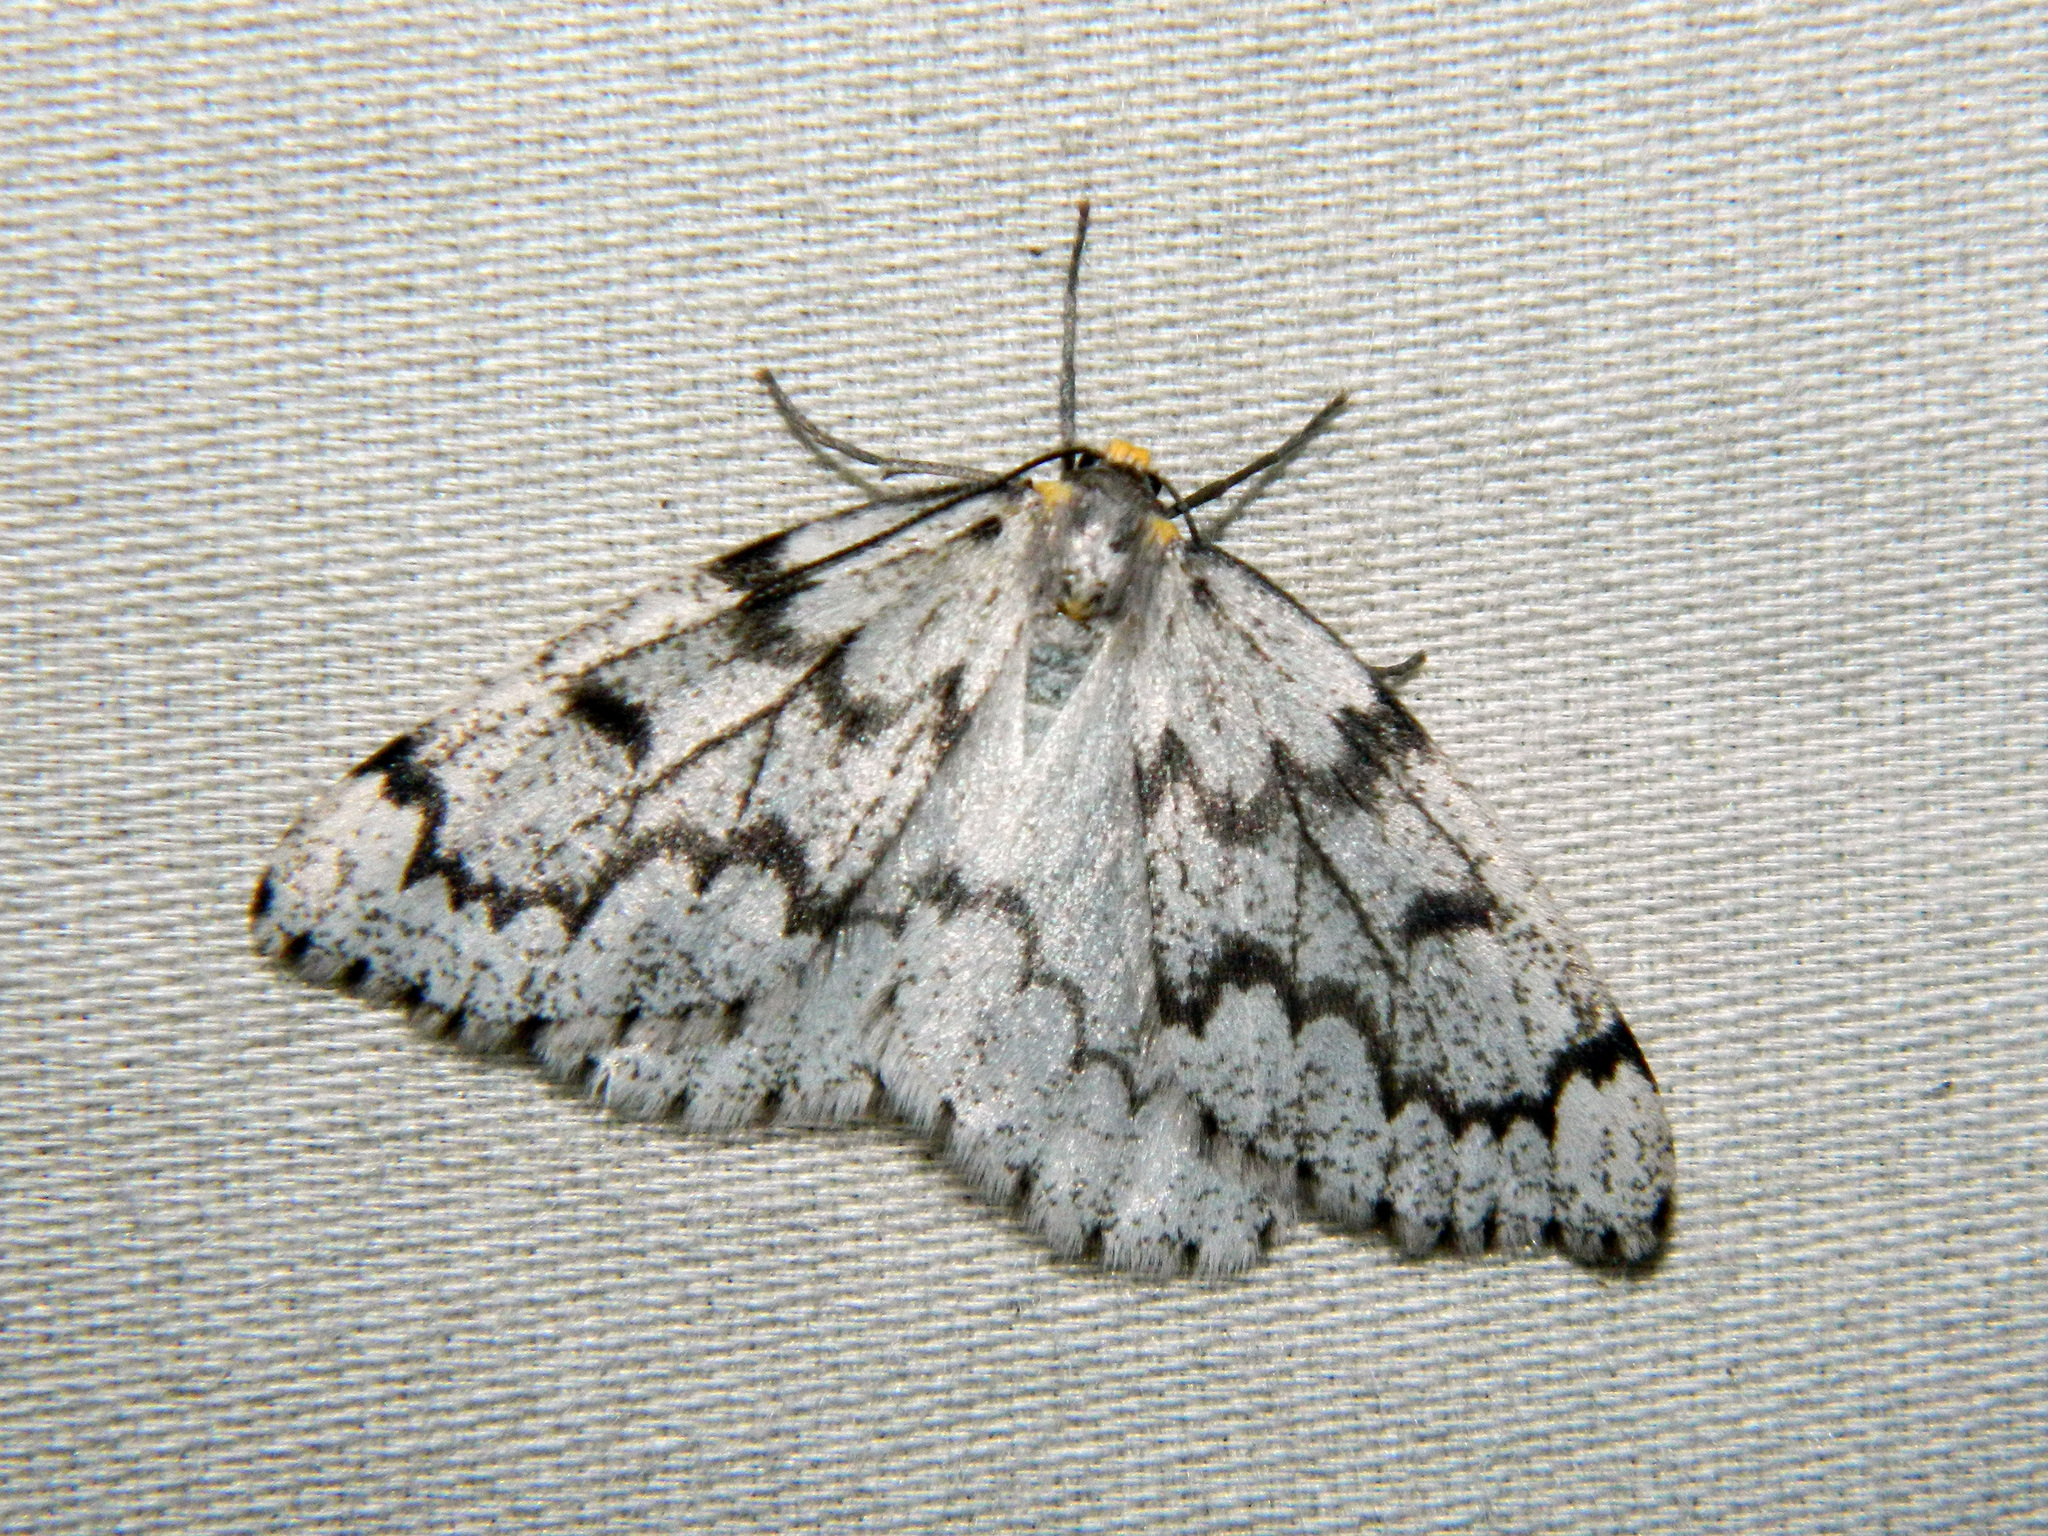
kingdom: Animalia
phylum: Arthropoda
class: Insecta
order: Lepidoptera
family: Geometridae
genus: Nepytia
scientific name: Nepytia canosaria
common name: False hemlock looper
